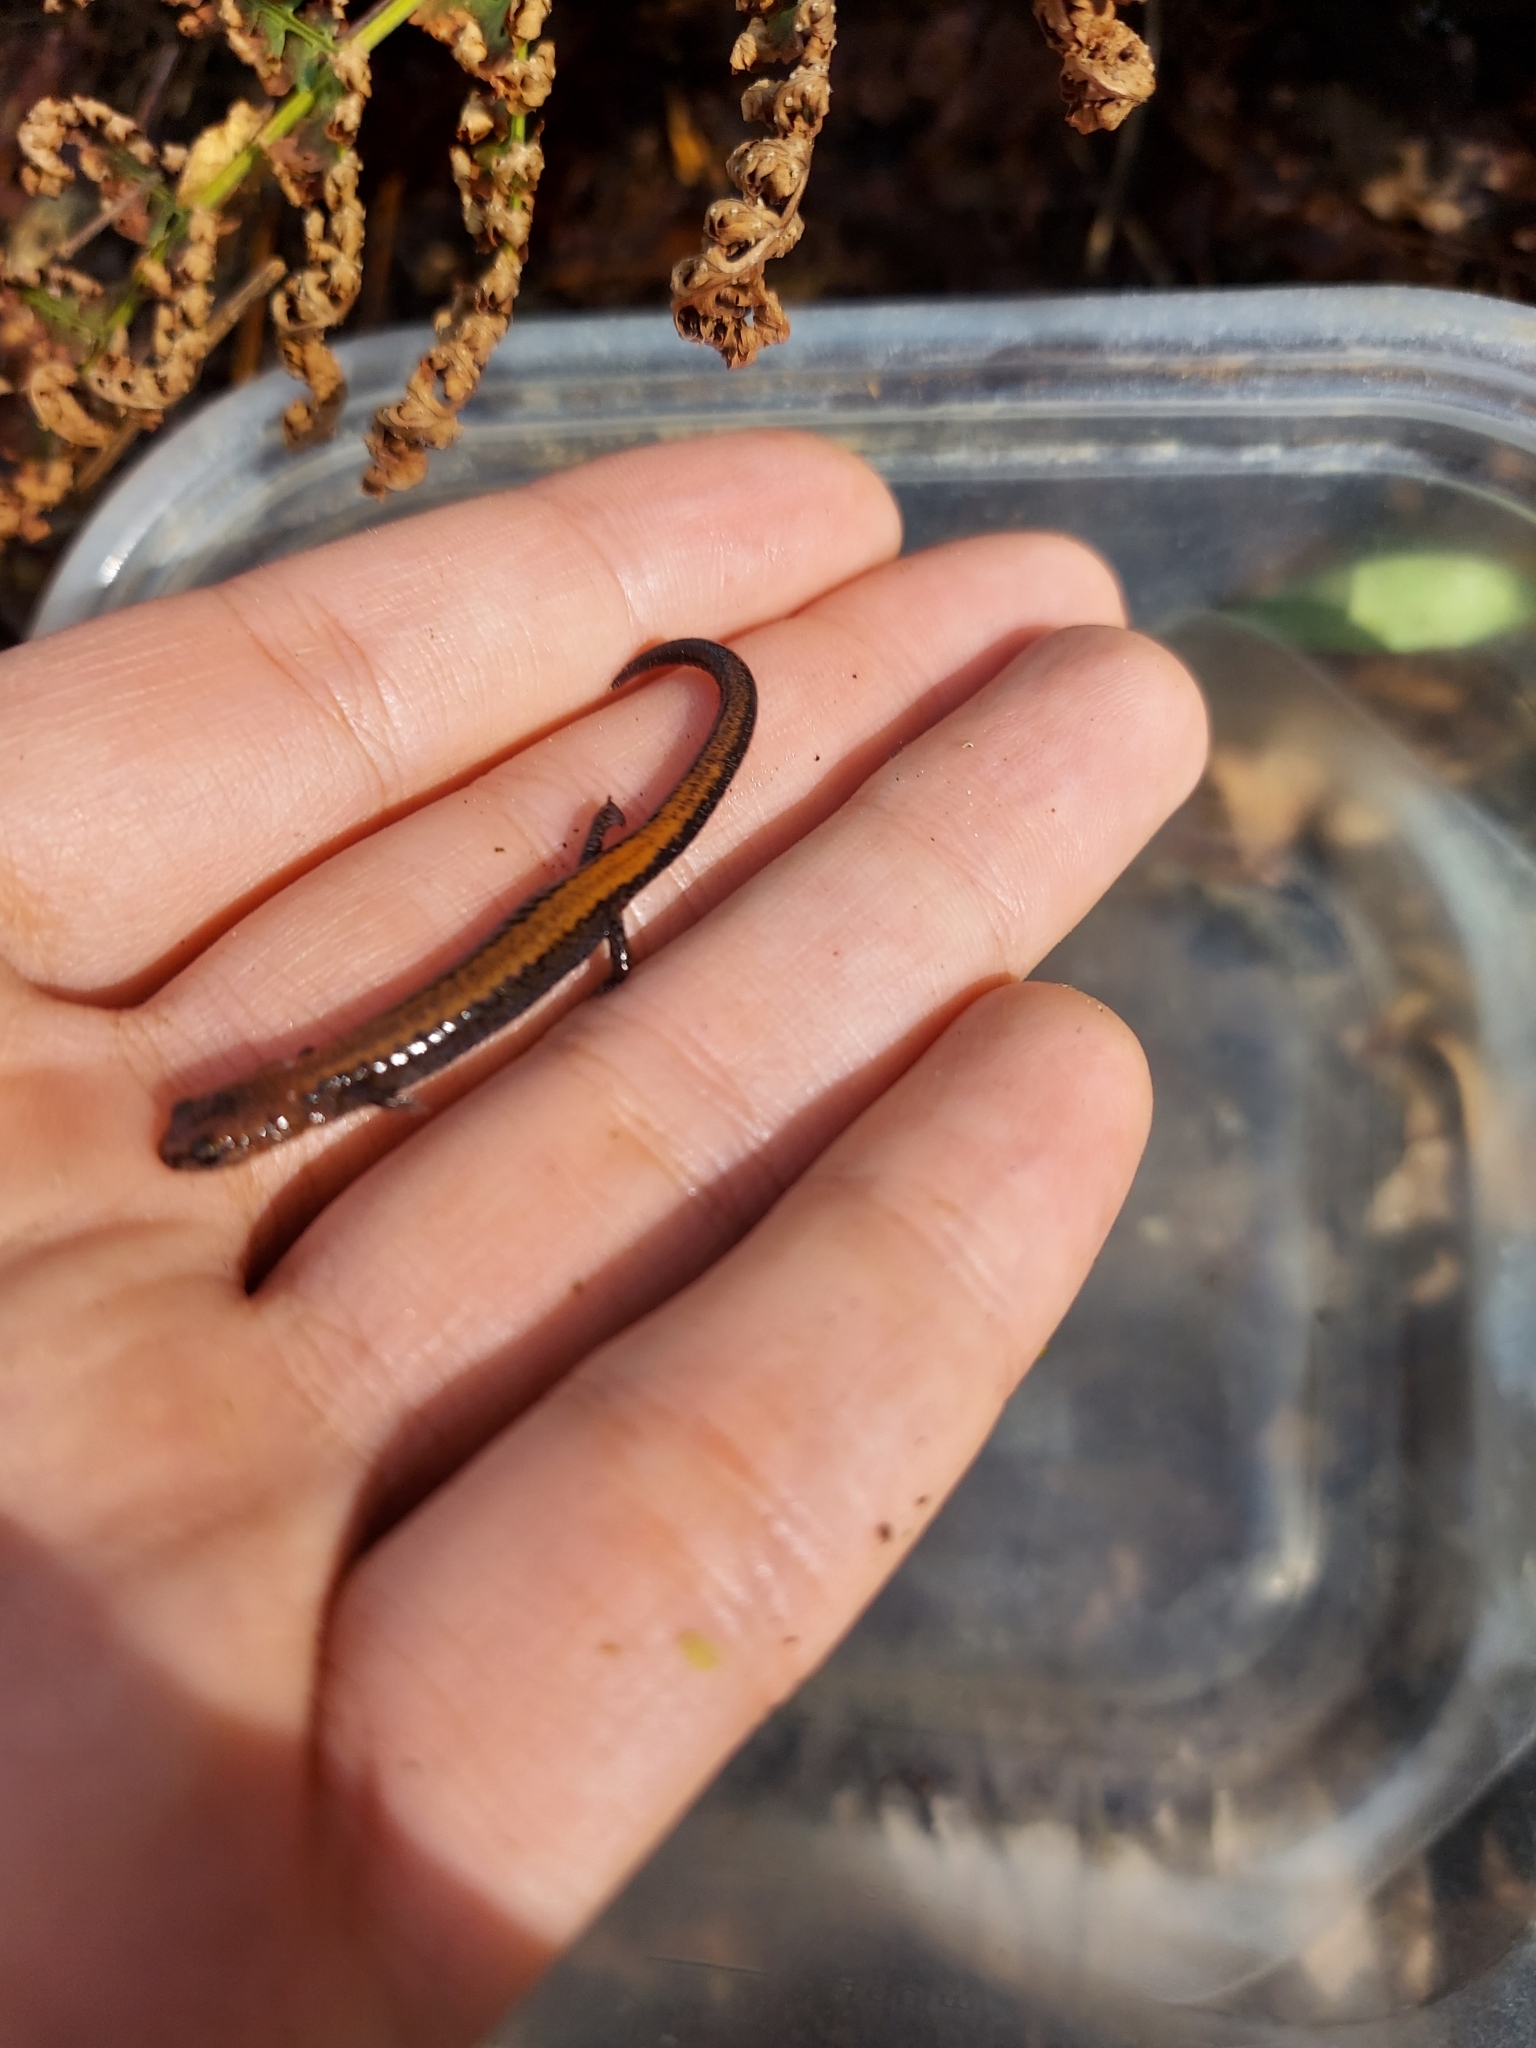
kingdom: Animalia
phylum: Chordata
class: Amphibia
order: Caudata
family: Plethodontidae
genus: Plethodon
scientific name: Plethodon cinereus
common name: Redback salamander
